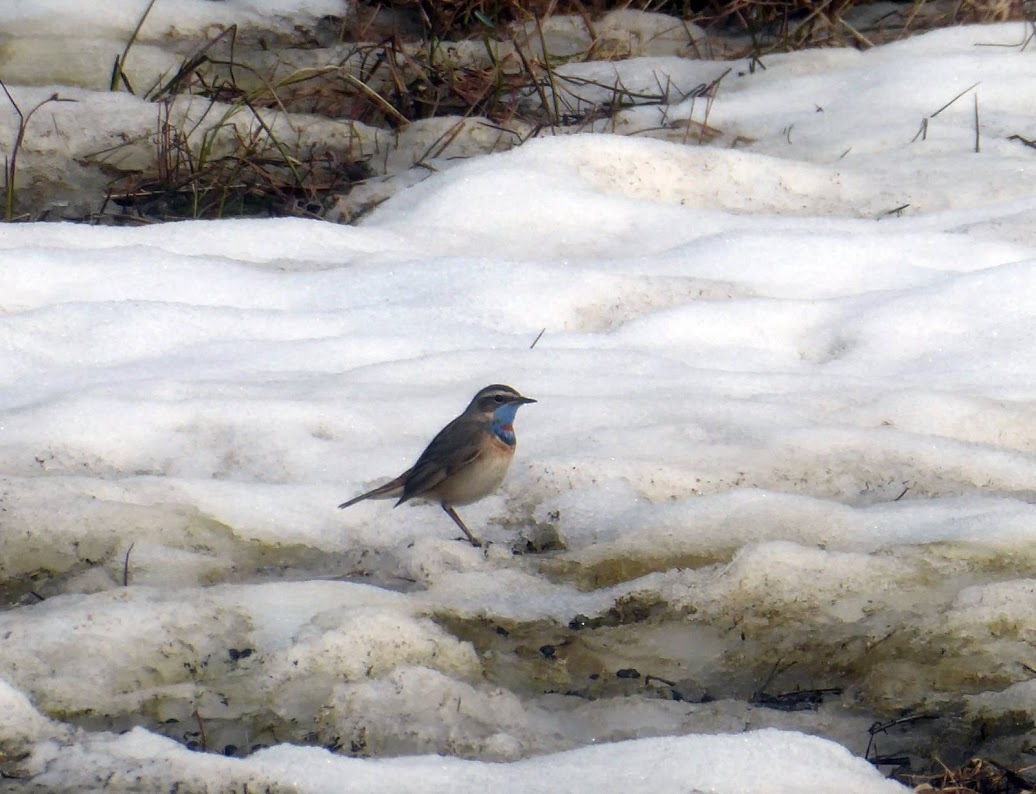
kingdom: Animalia
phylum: Chordata
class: Aves
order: Passeriformes
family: Muscicapidae
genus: Luscinia
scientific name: Luscinia svecica
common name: Bluethroat
